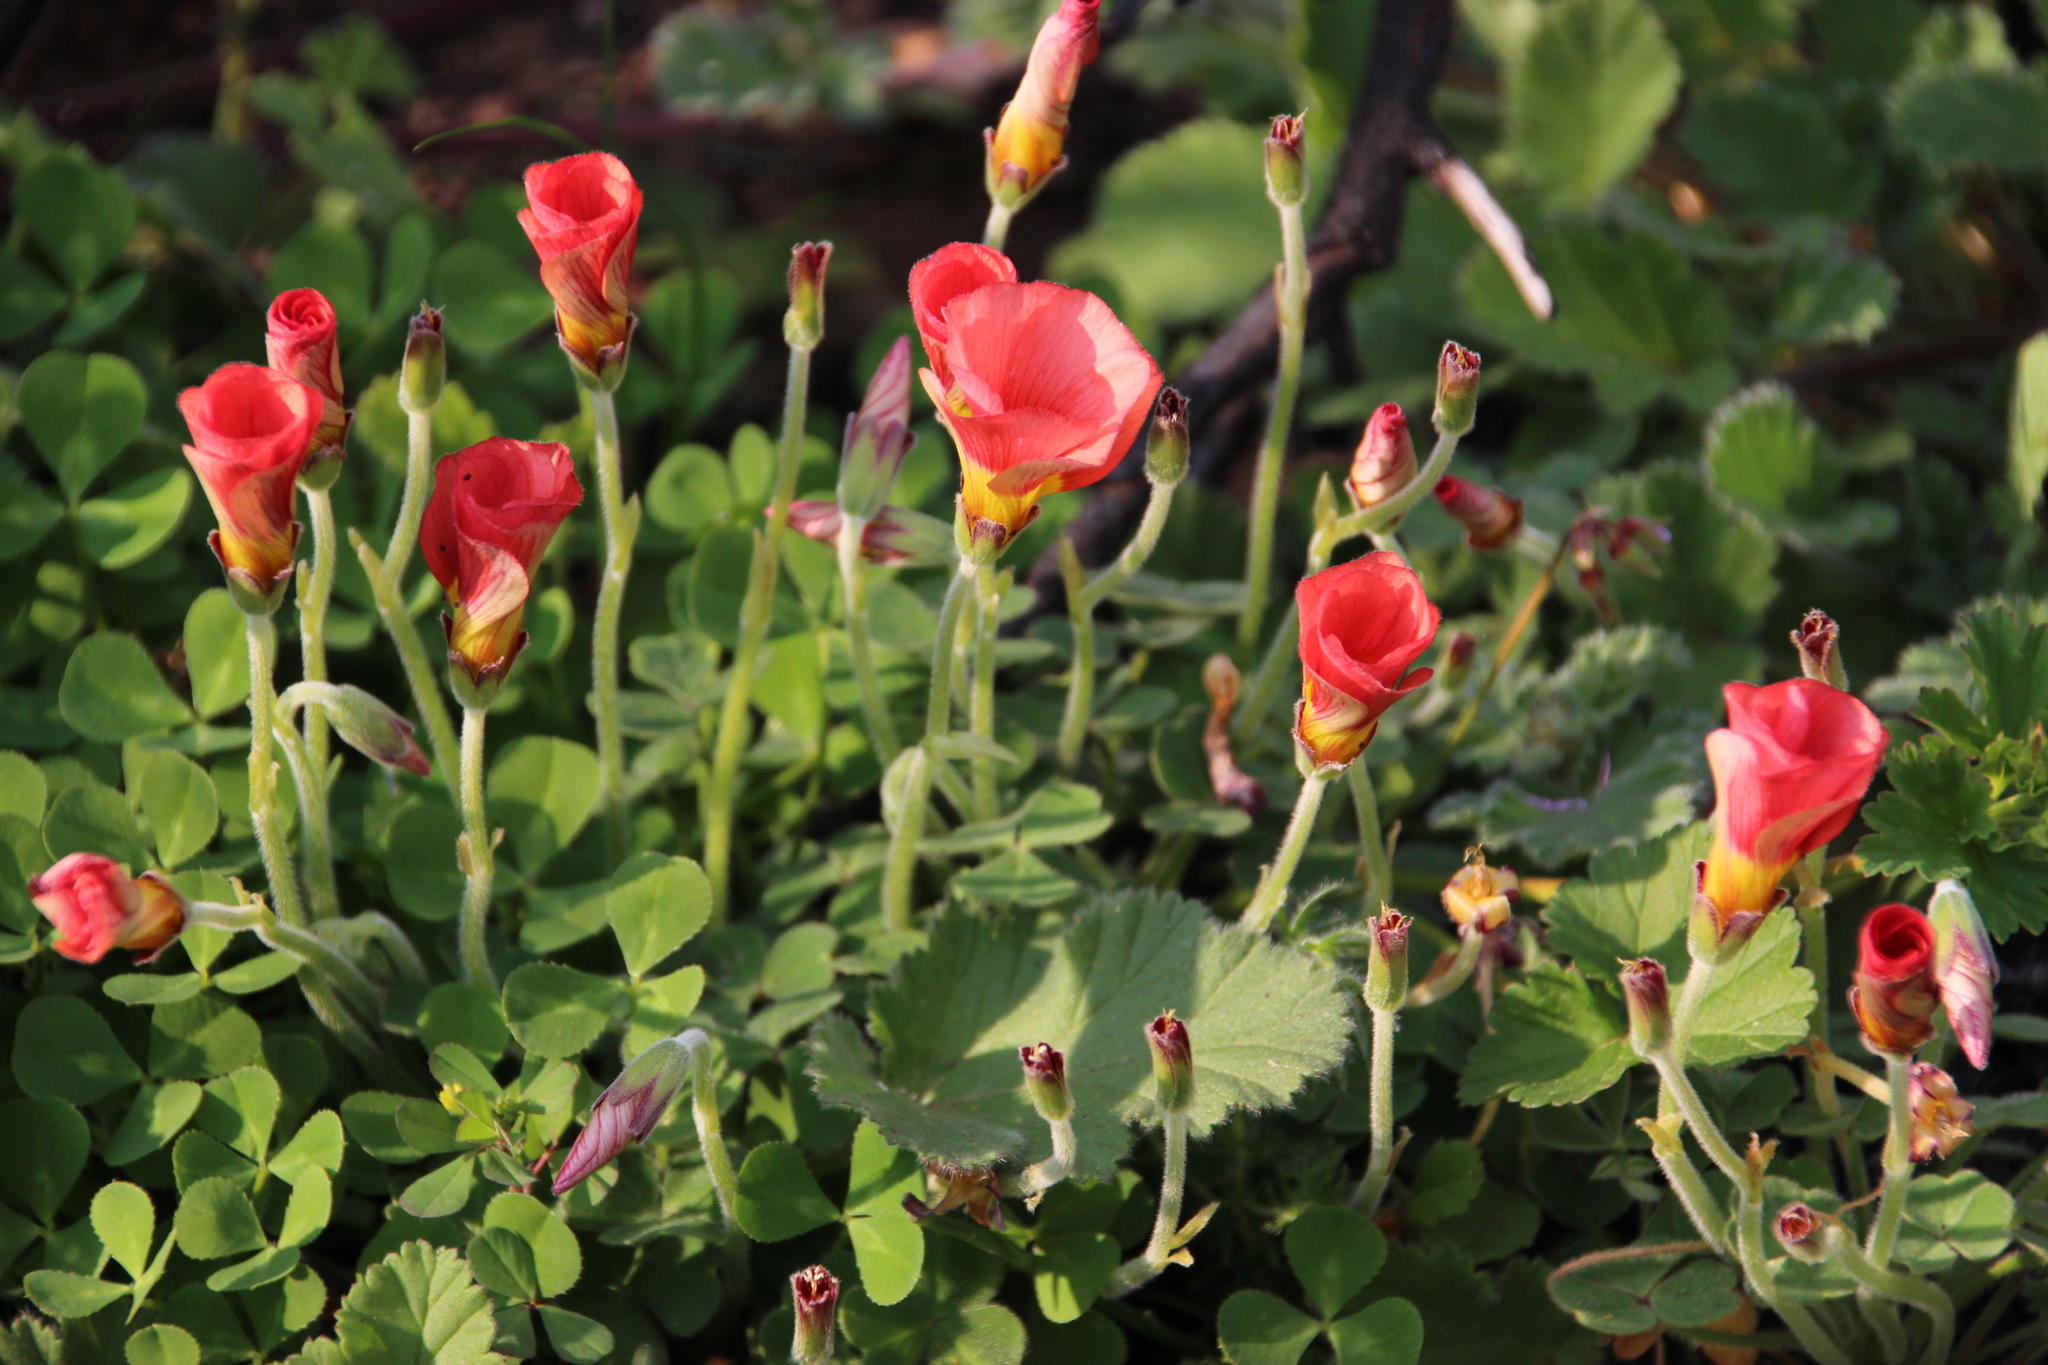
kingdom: Plantae
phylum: Tracheophyta
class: Magnoliopsida
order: Oxalidales
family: Oxalidaceae
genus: Oxalis
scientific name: Oxalis obtusa
